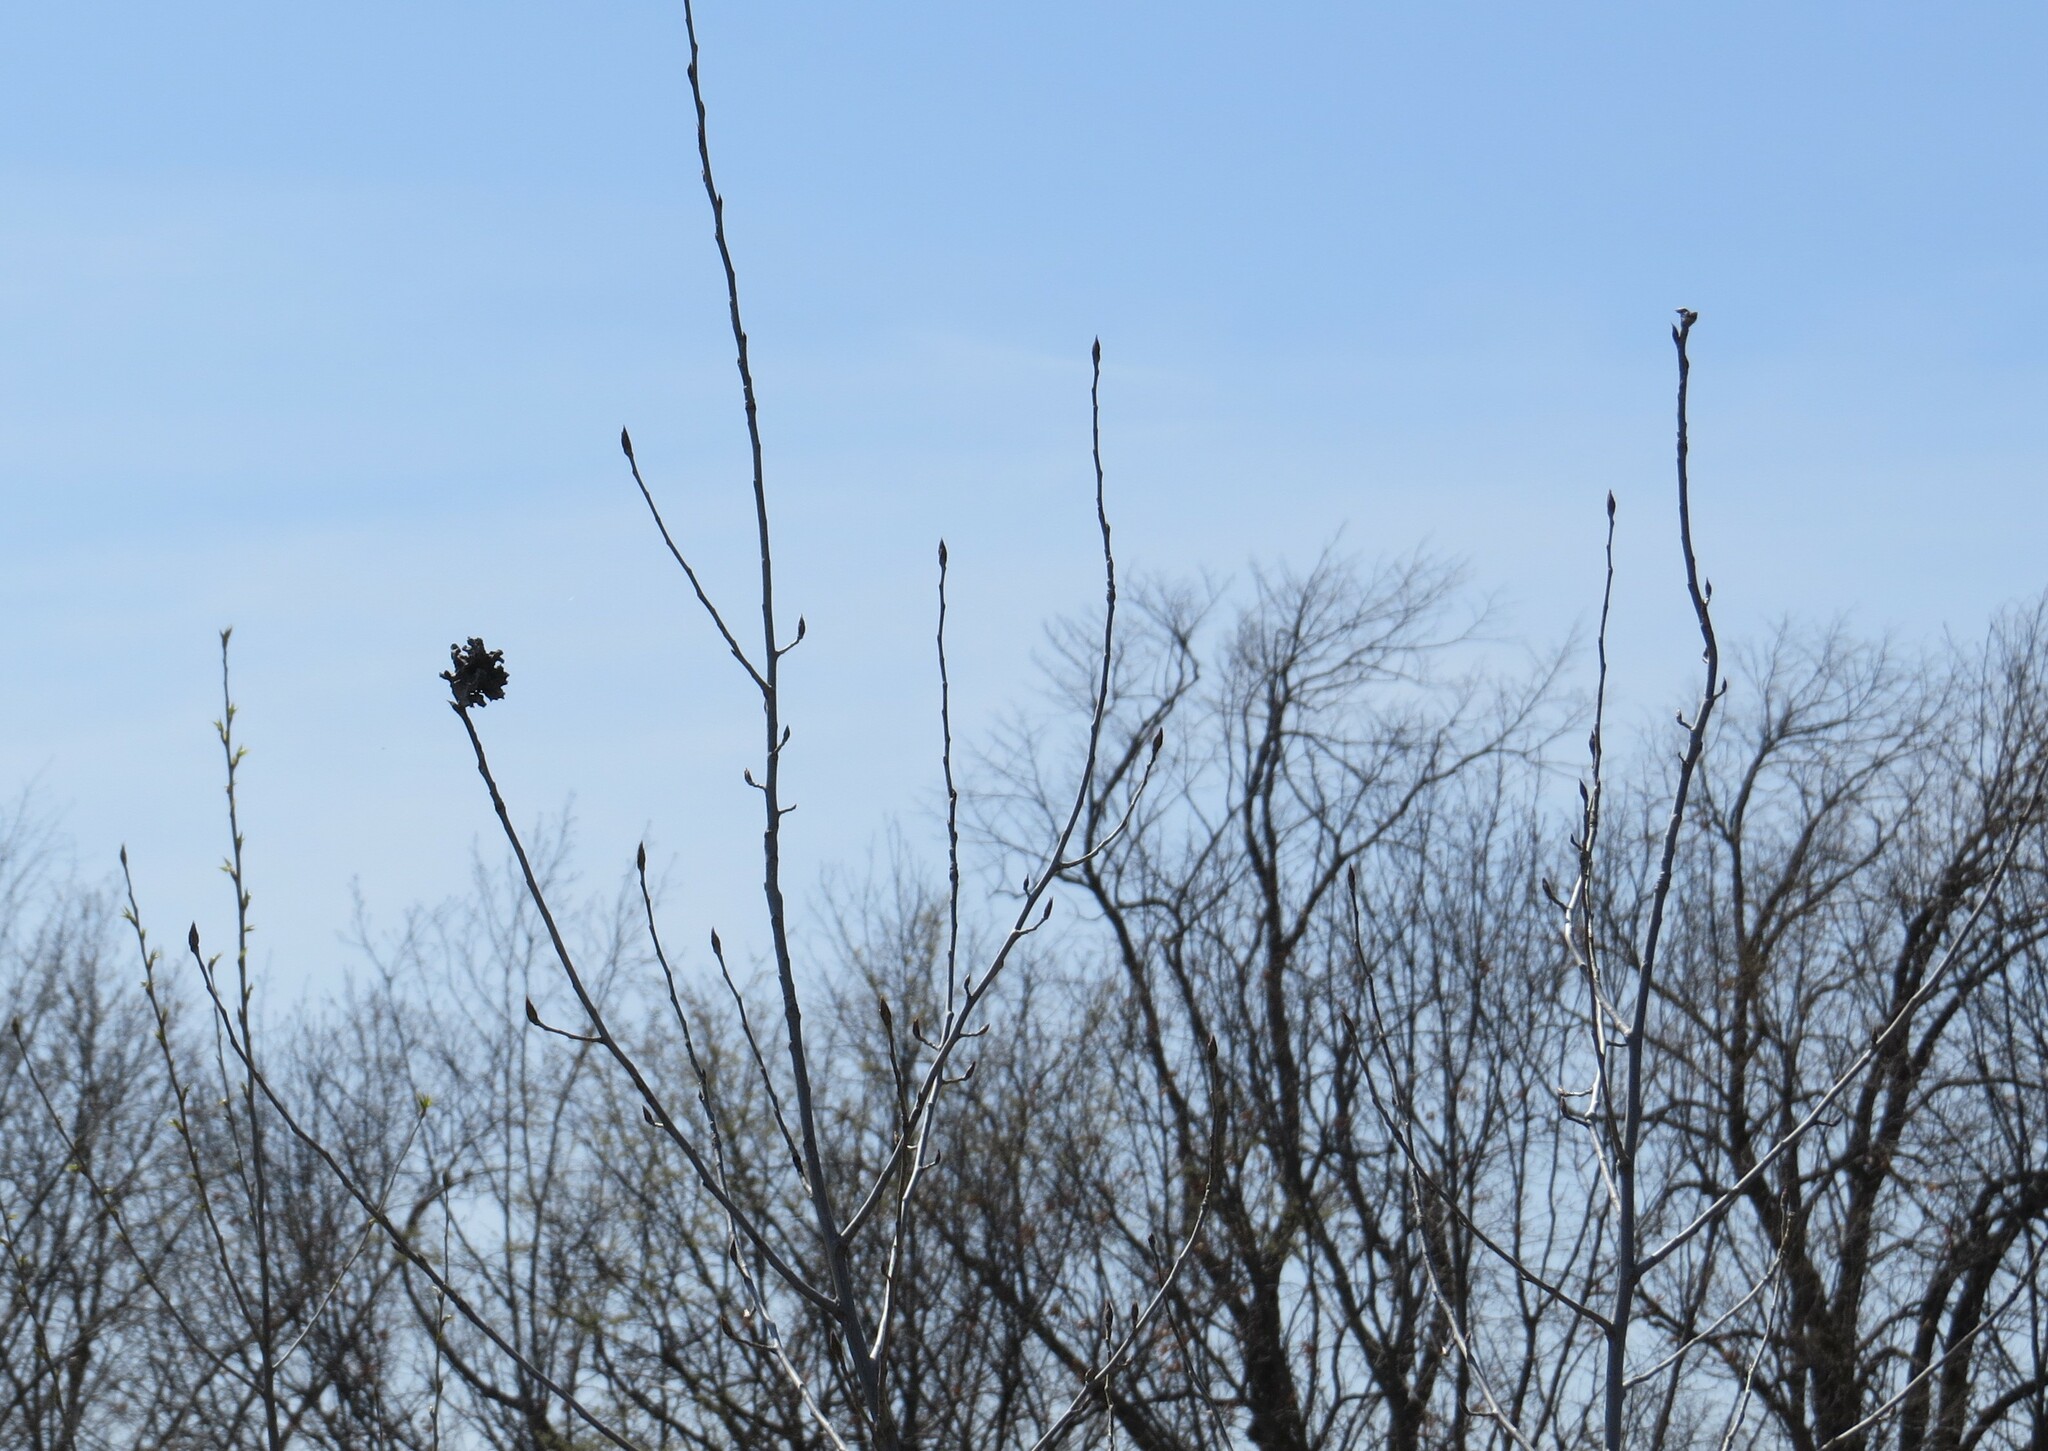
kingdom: Animalia
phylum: Arthropoda
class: Insecta
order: Hemiptera
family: Aphididae
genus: Mordwilkoja
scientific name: Mordwilkoja vagabunda
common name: Poplar vagabond aphid
